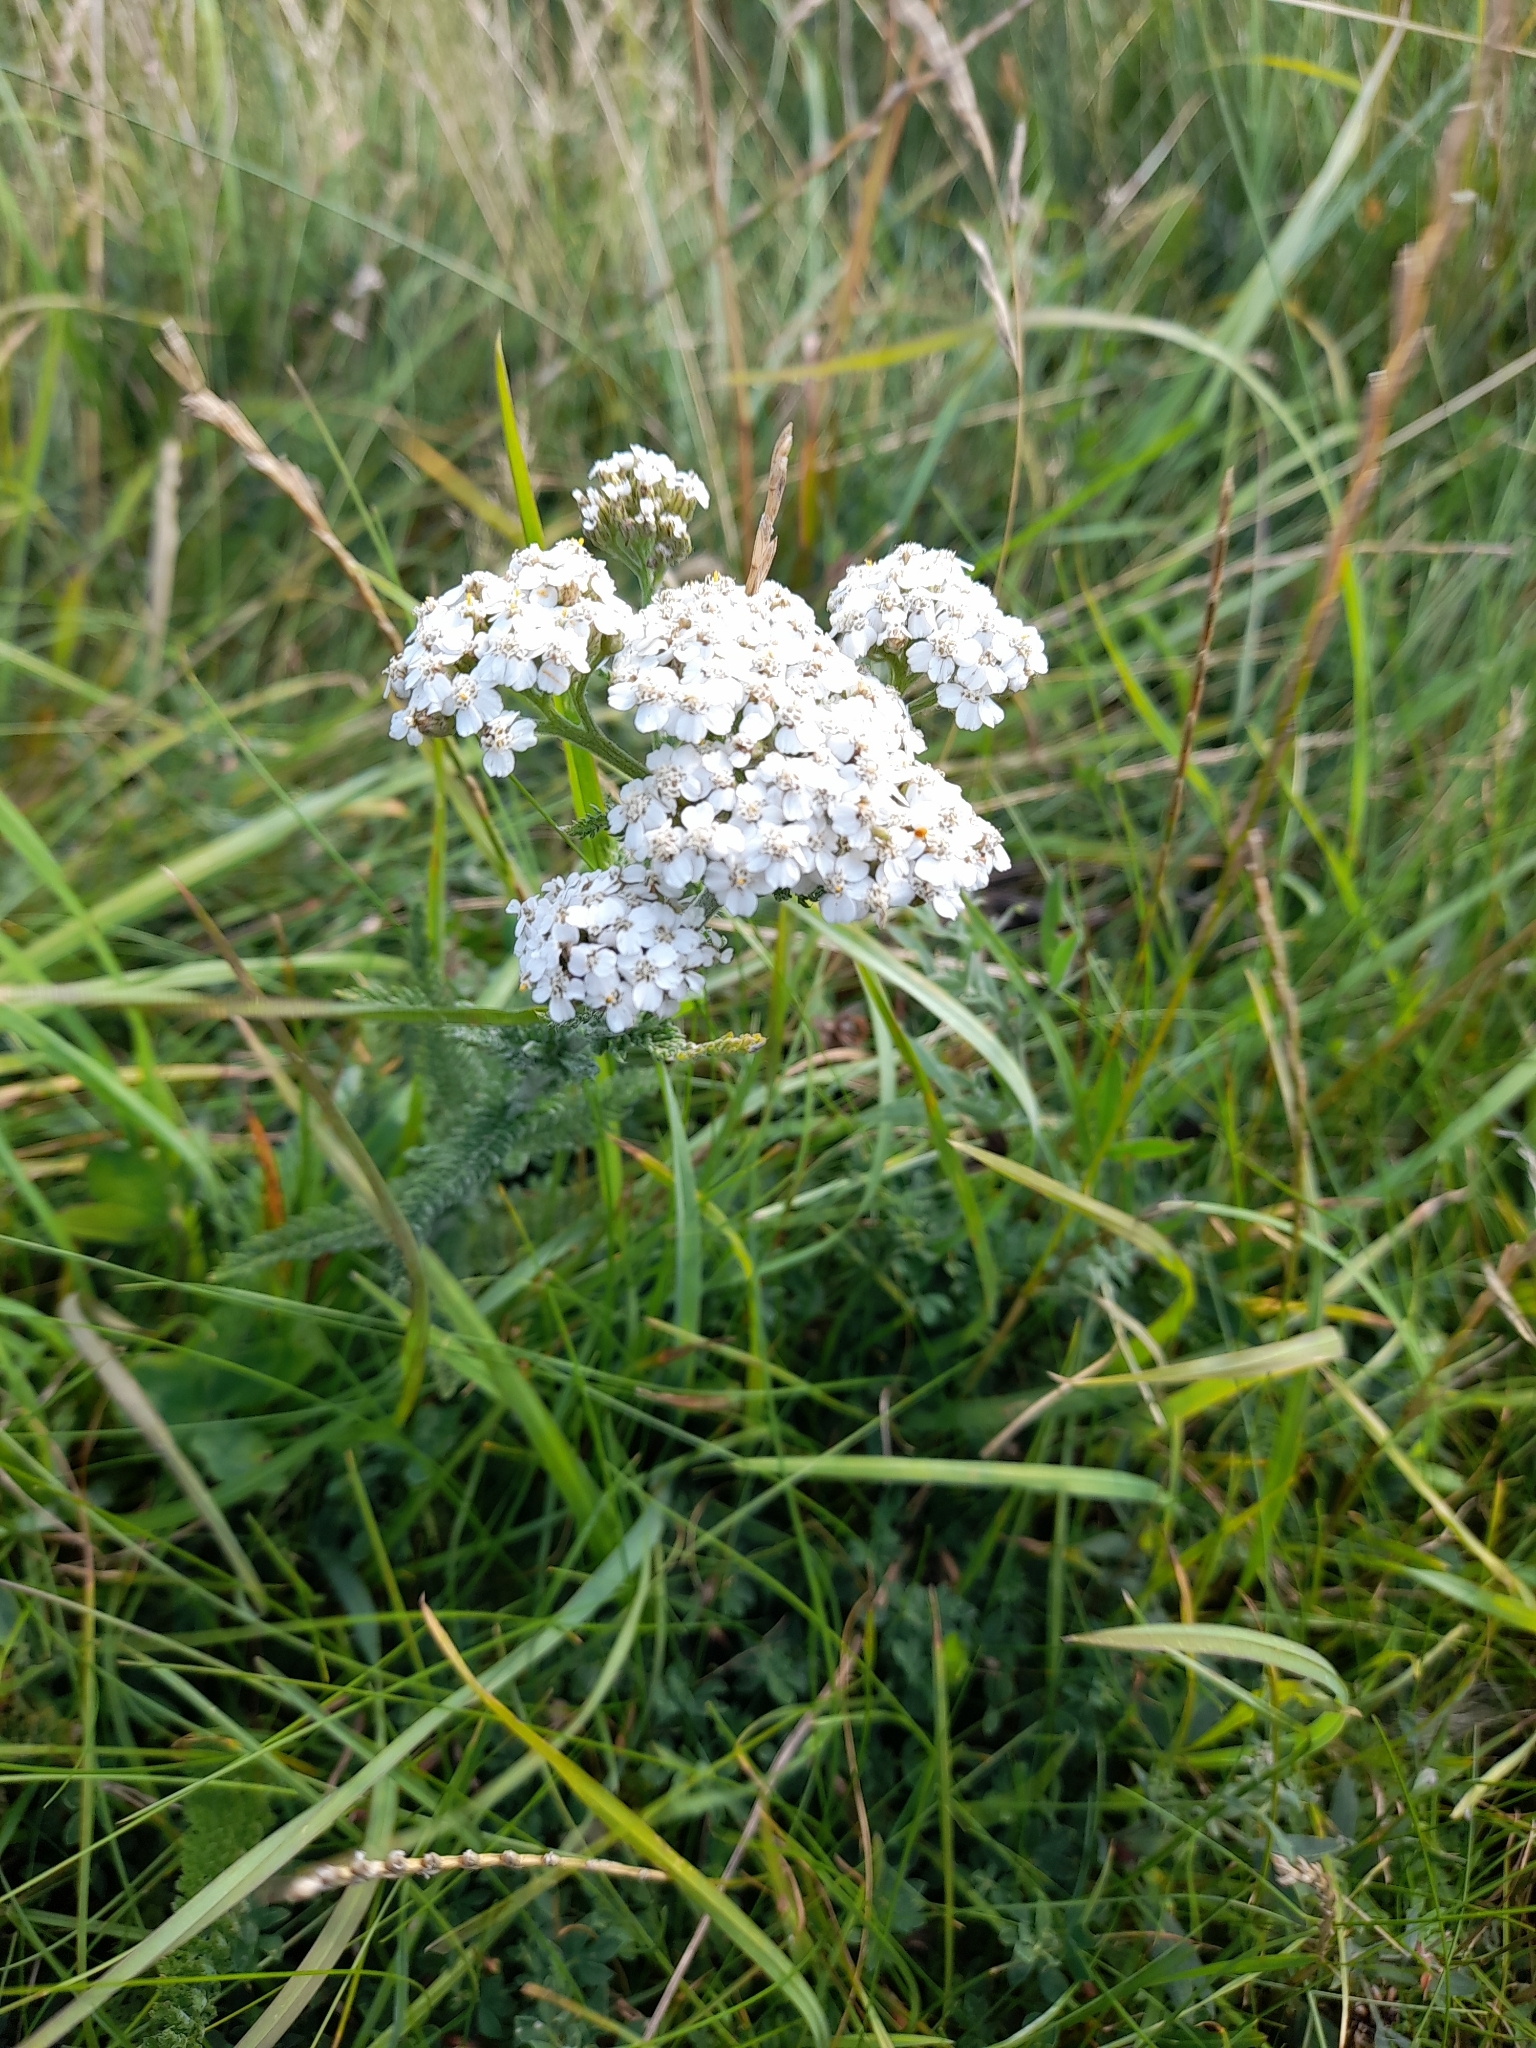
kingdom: Plantae
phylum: Tracheophyta
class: Magnoliopsida
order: Asterales
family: Asteraceae
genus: Achillea
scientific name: Achillea millefolium
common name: Yarrow
